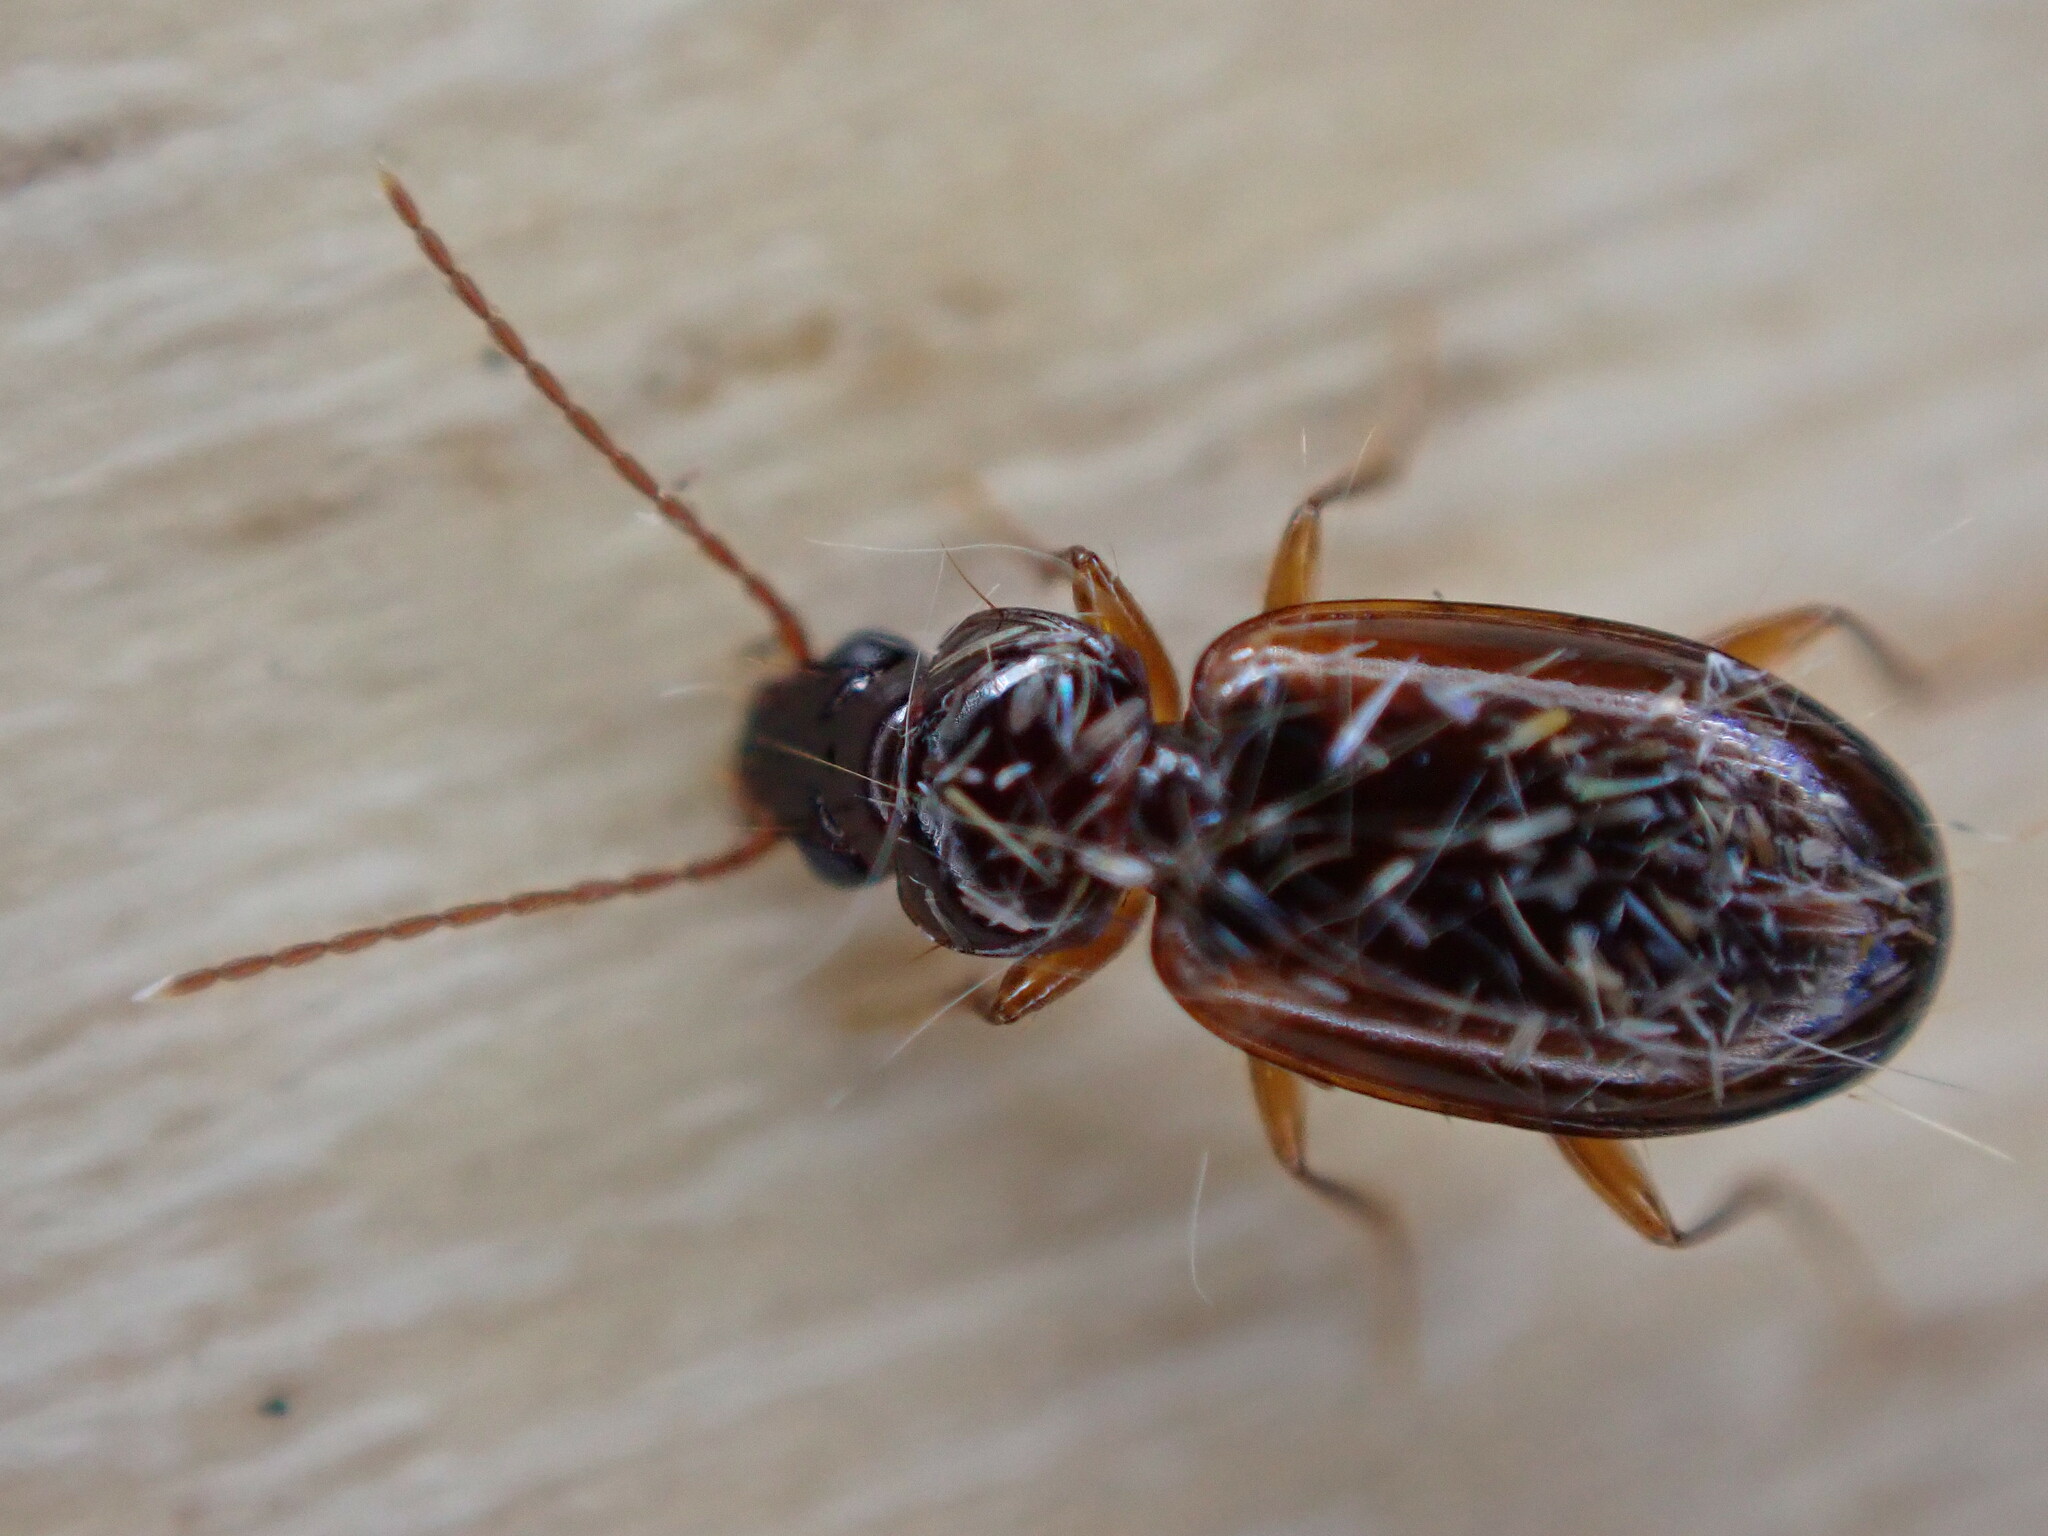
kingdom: Animalia
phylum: Arthropoda
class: Insecta
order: Coleoptera
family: Carabidae
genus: Trechus
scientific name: Trechus
